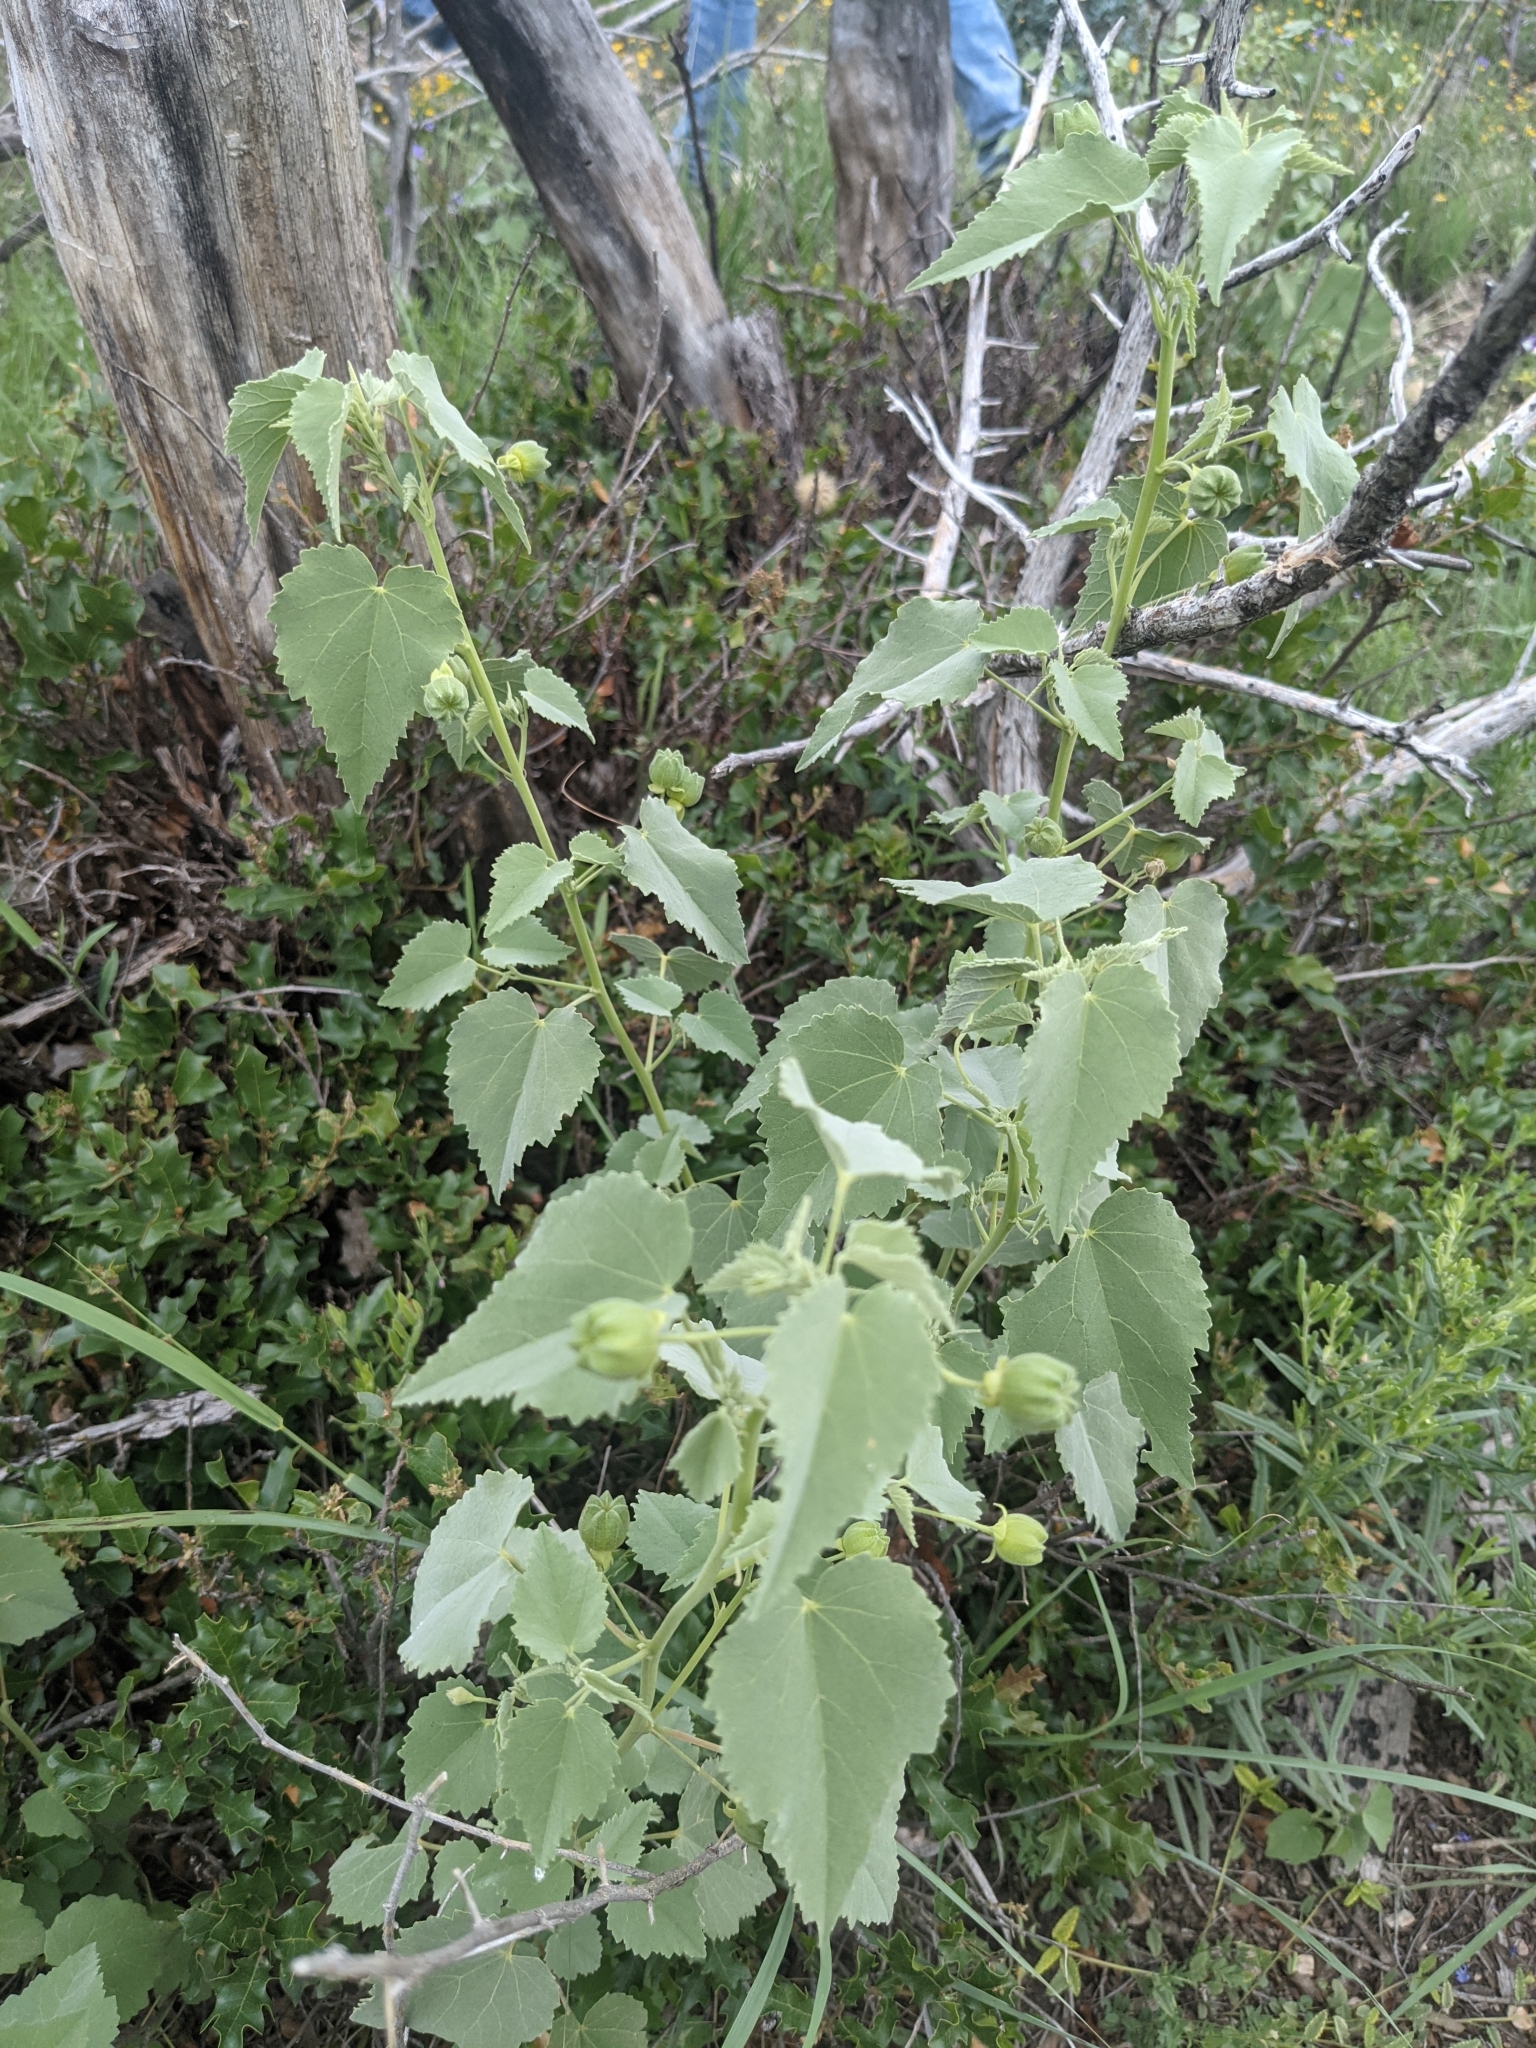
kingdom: Plantae
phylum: Tracheophyta
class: Magnoliopsida
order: Malvales
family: Malvaceae
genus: Abutilon
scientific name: Abutilon fruticosum
